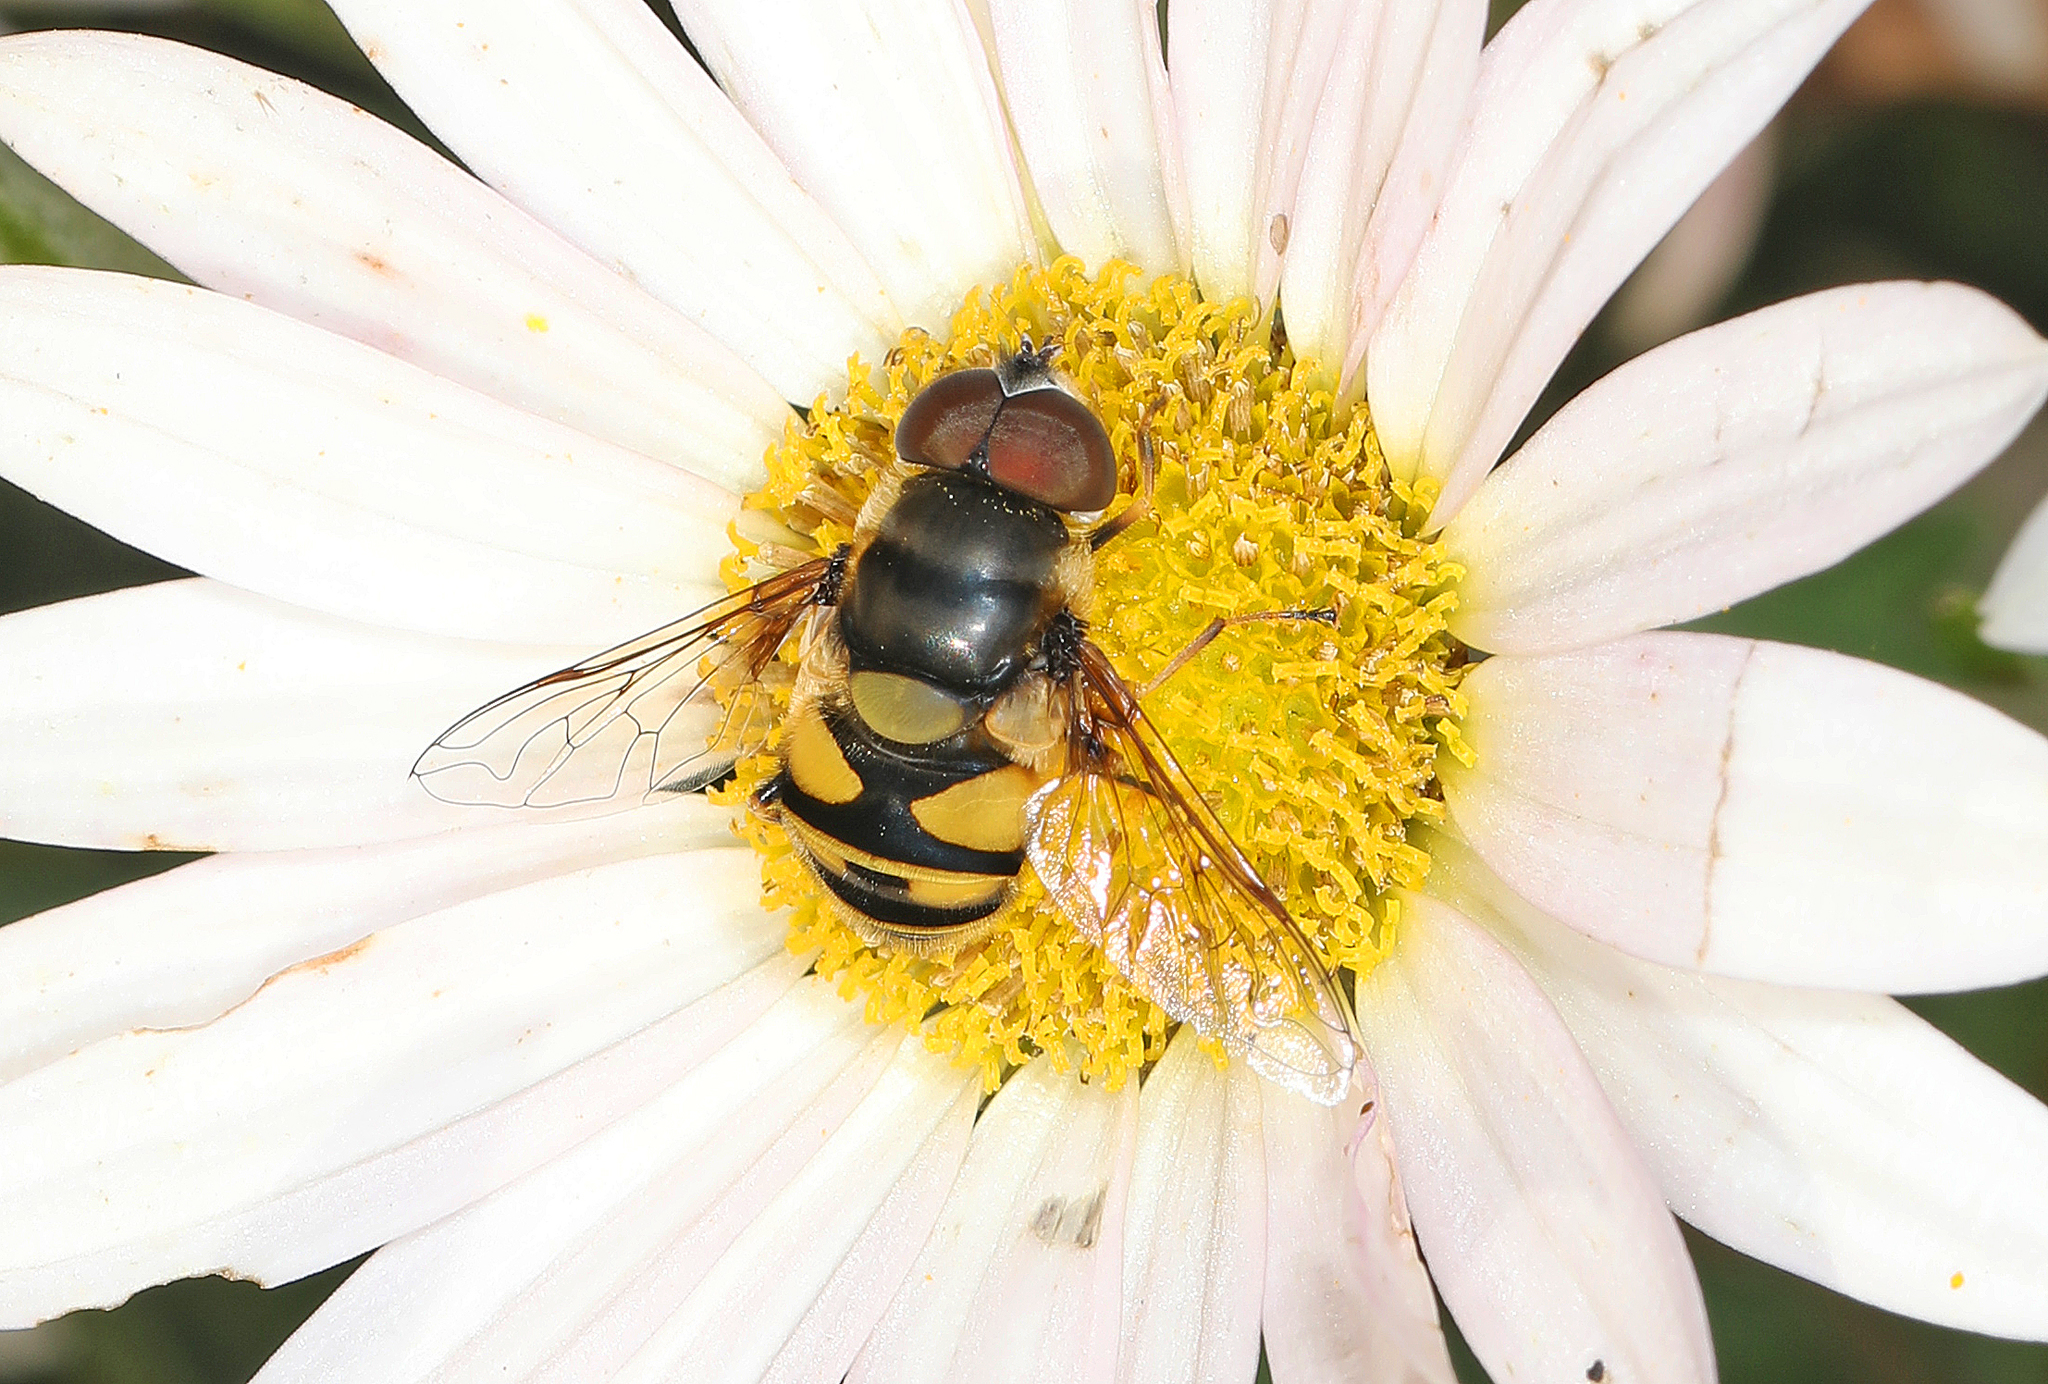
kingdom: Animalia
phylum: Arthropoda
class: Insecta
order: Diptera
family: Syrphidae
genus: Eristalis
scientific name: Eristalis transversa
